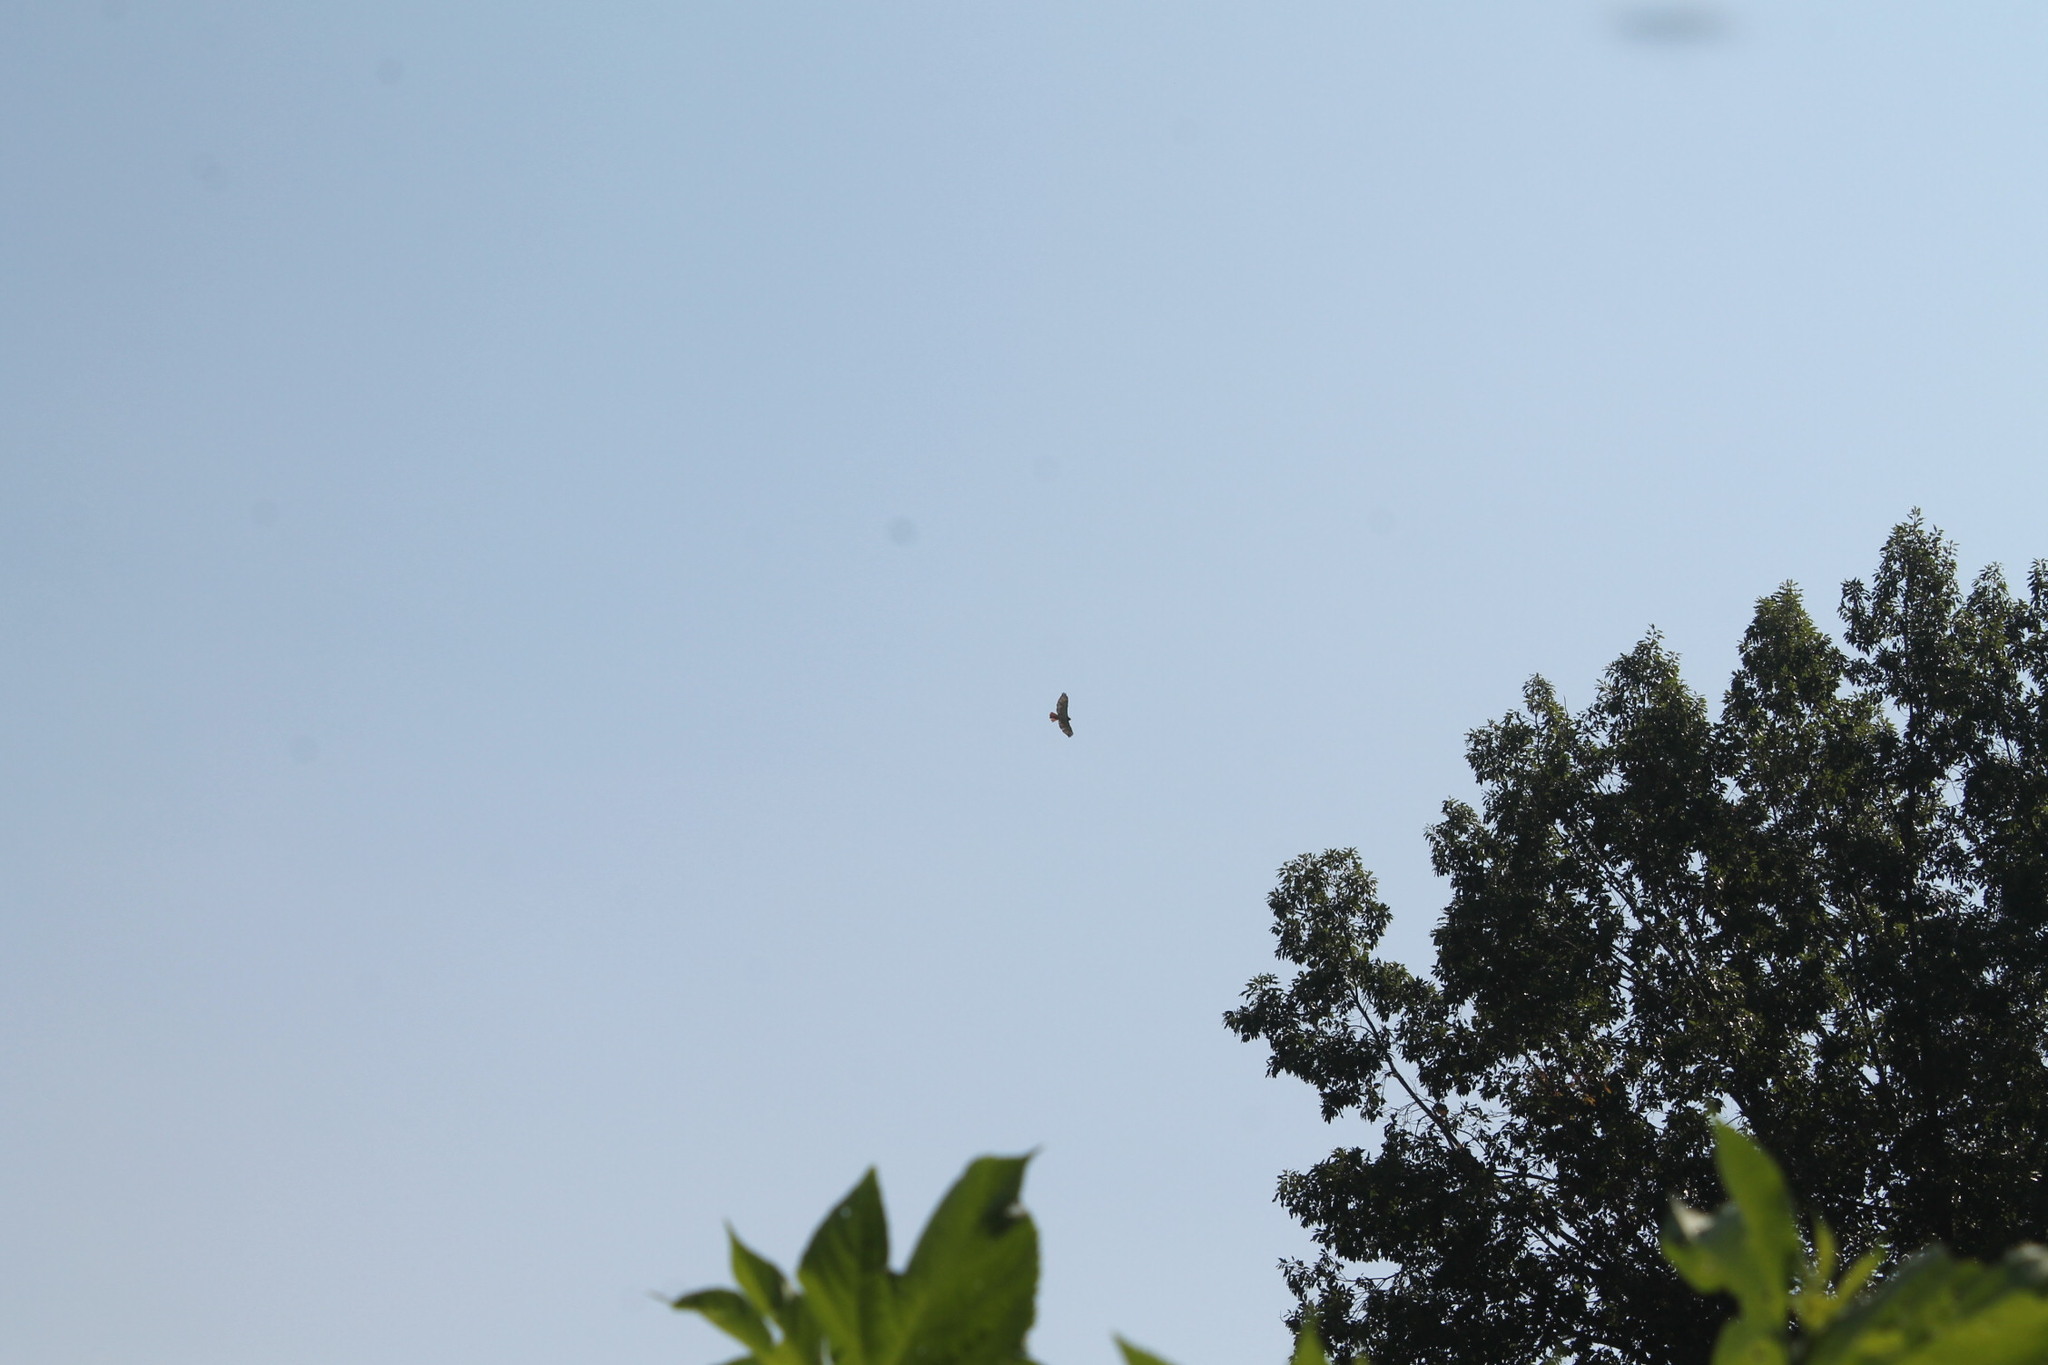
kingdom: Animalia
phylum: Chordata
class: Aves
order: Accipitriformes
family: Accipitridae
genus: Buteo
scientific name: Buteo jamaicensis
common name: Red-tailed hawk
